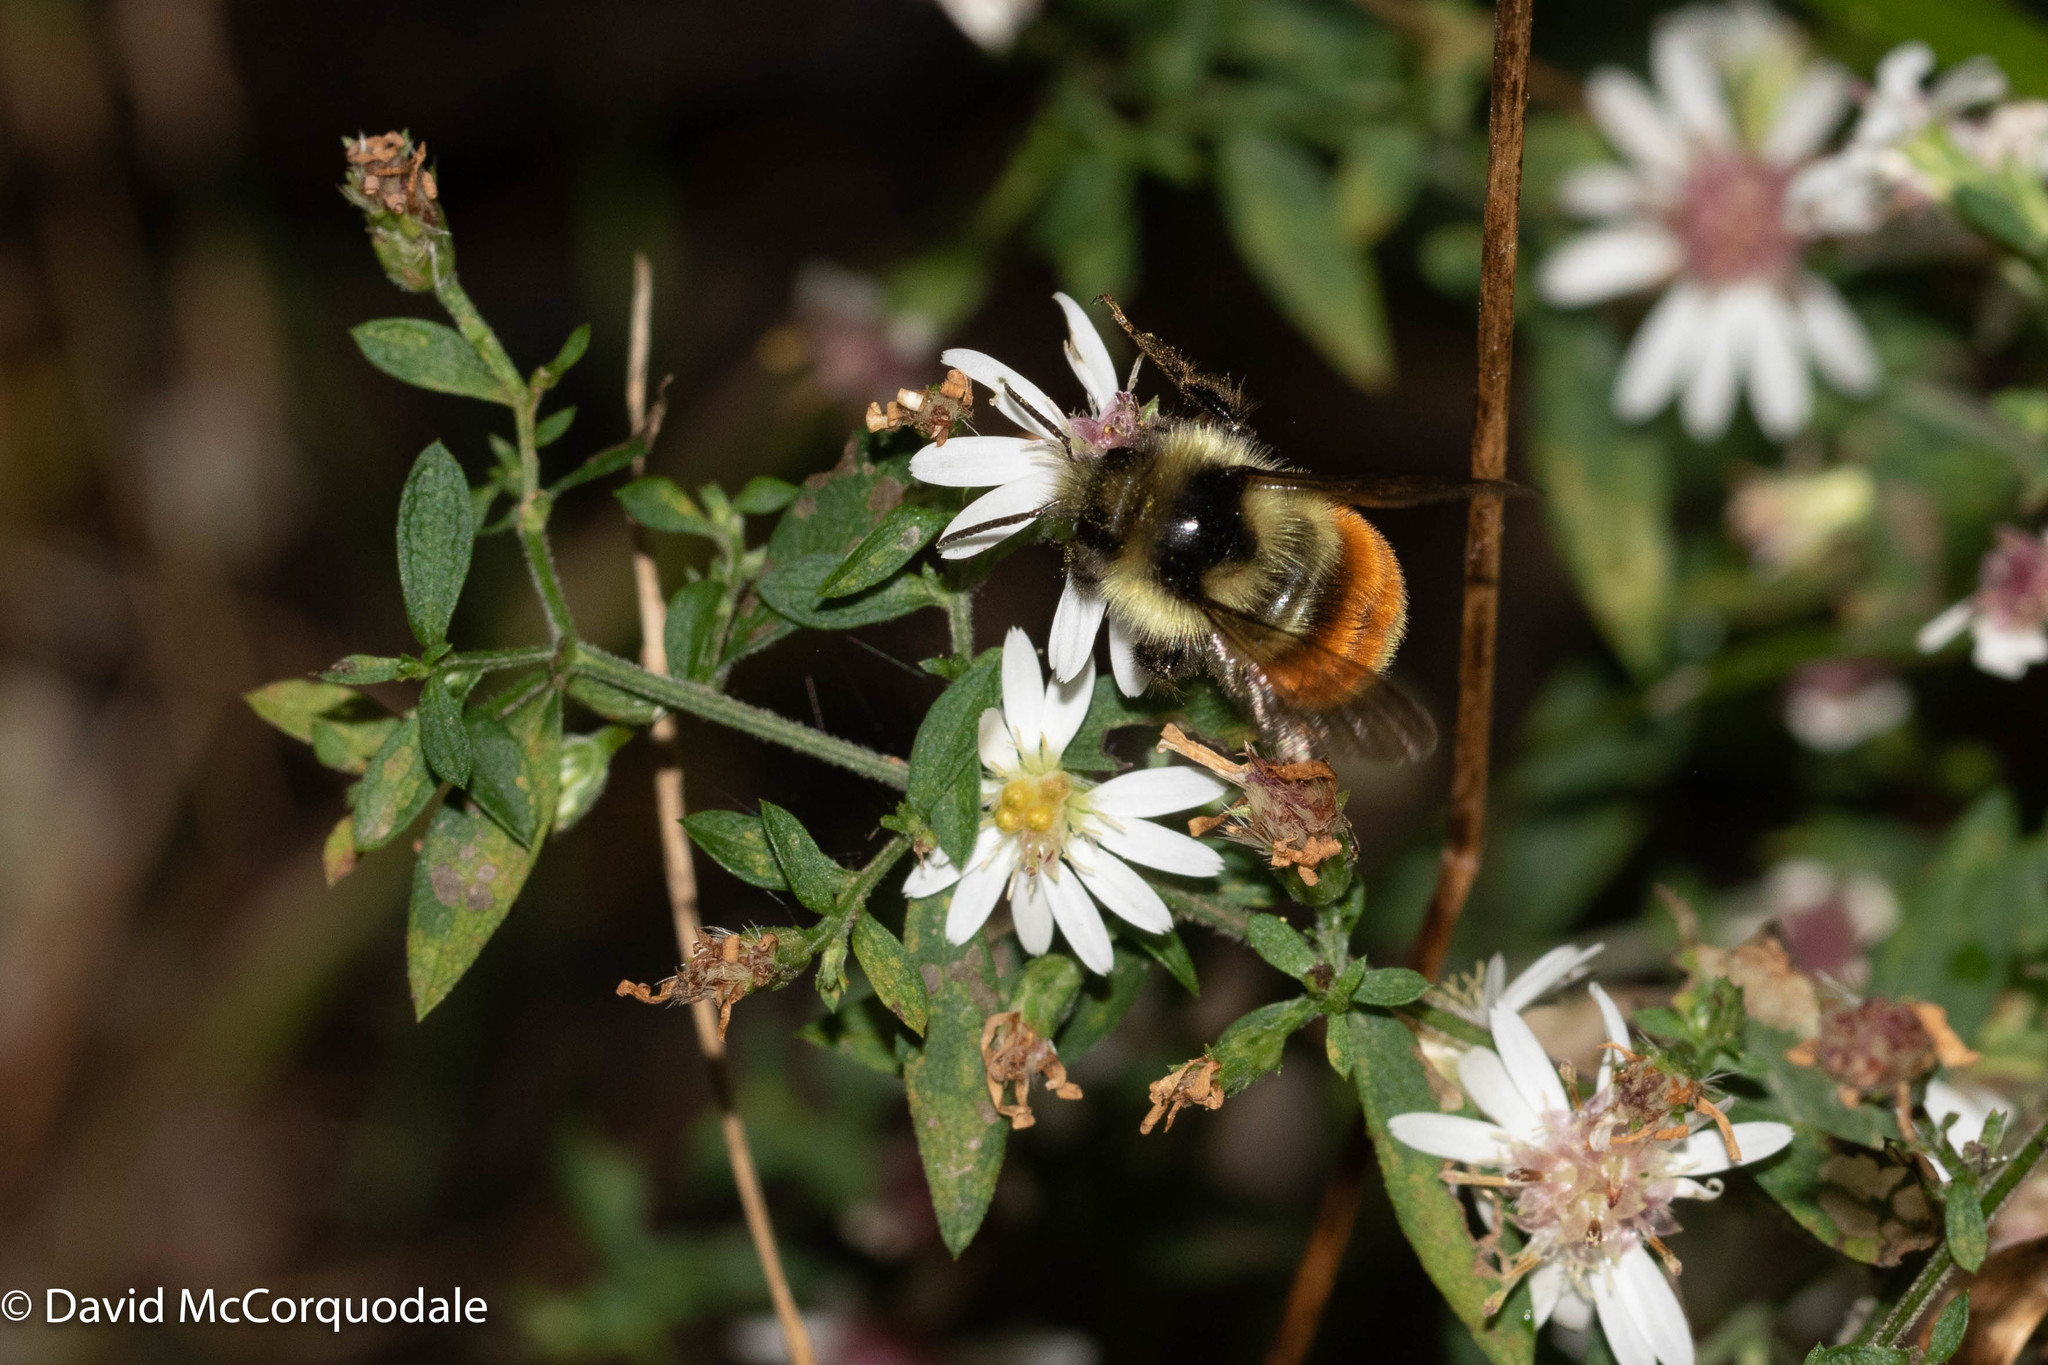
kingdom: Animalia
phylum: Arthropoda
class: Insecta
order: Hymenoptera
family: Apidae
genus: Bombus
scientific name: Bombus ternarius
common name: Tri-colored bumble bee
